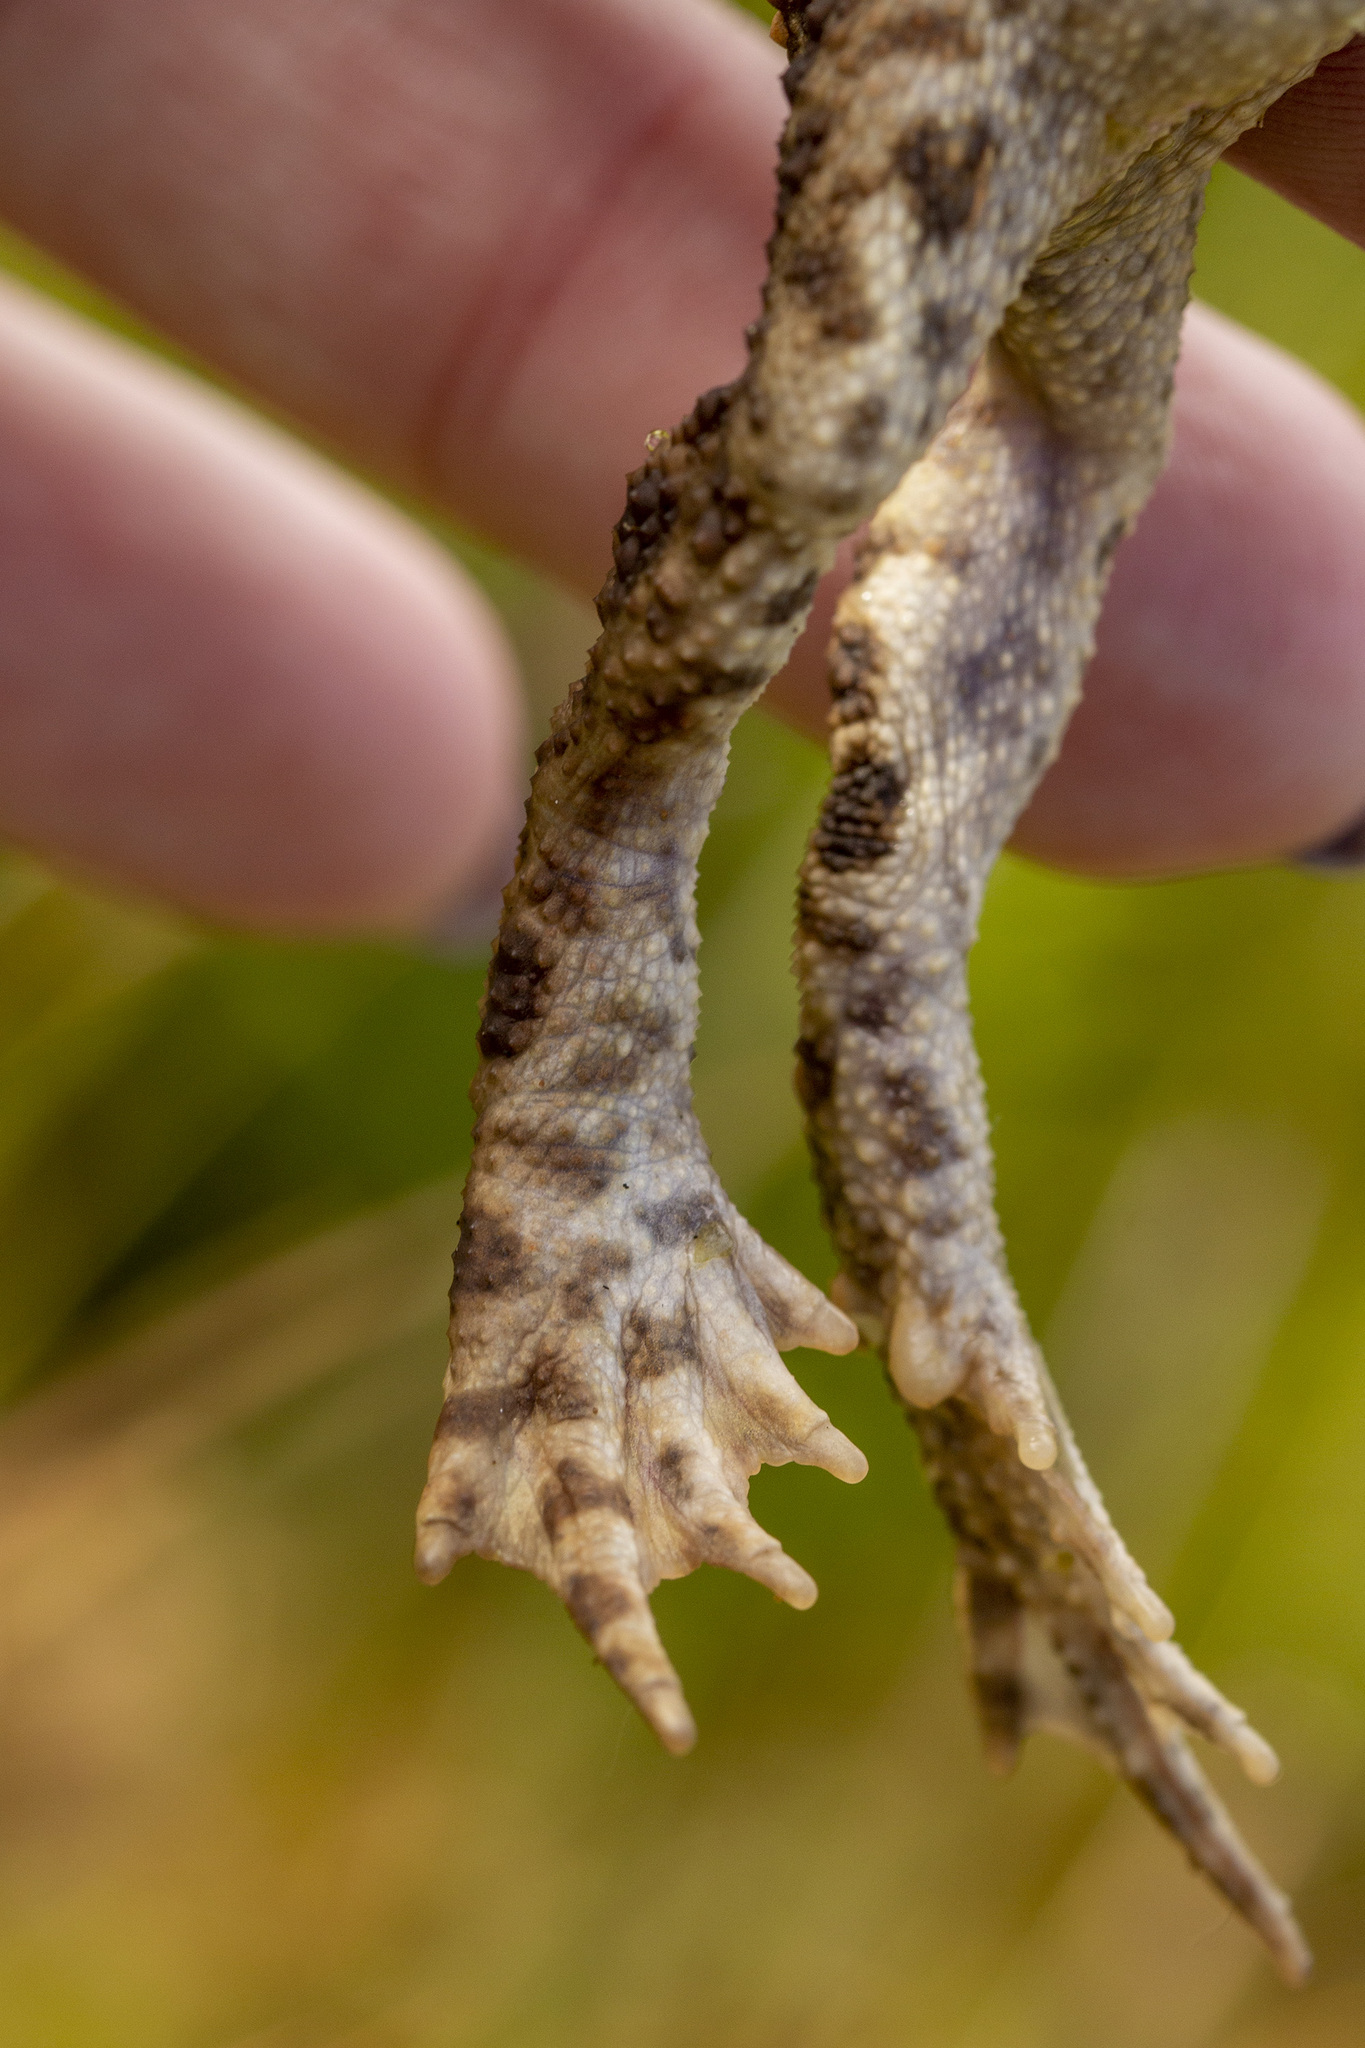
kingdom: Animalia
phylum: Chordata
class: Amphibia
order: Anura
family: Bufonidae
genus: Bufo
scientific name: Bufo bufo
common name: Common toad
